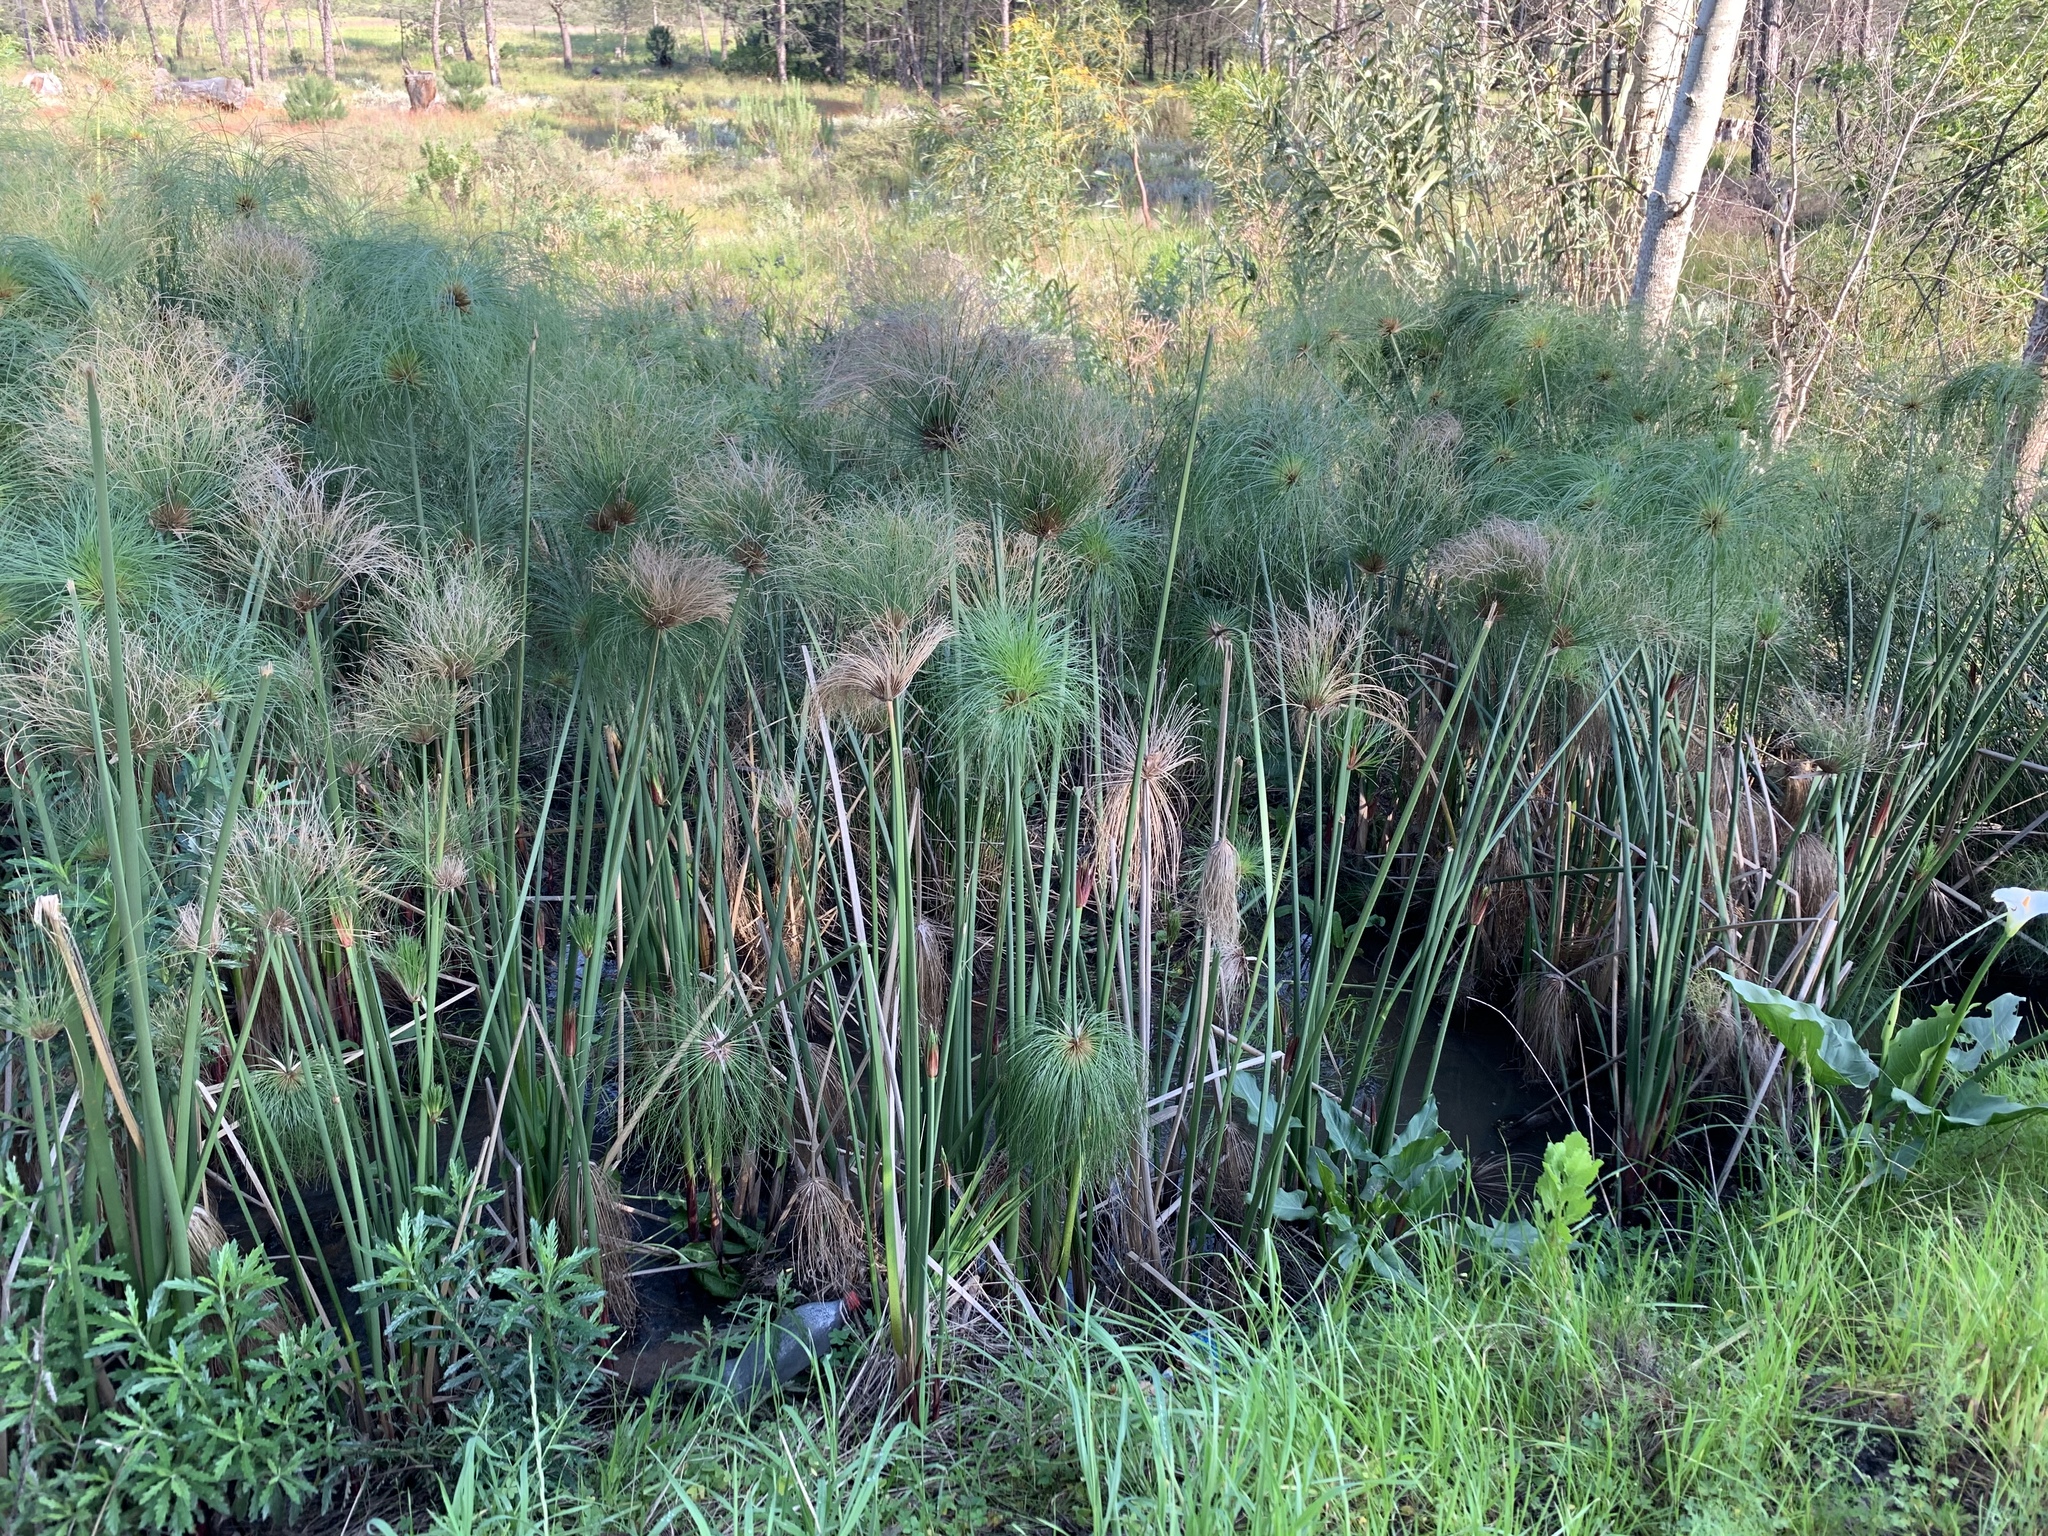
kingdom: Plantae
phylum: Tracheophyta
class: Liliopsida
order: Poales
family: Cyperaceae
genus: Cyperus
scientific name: Cyperus papyrus
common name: Papyrus
